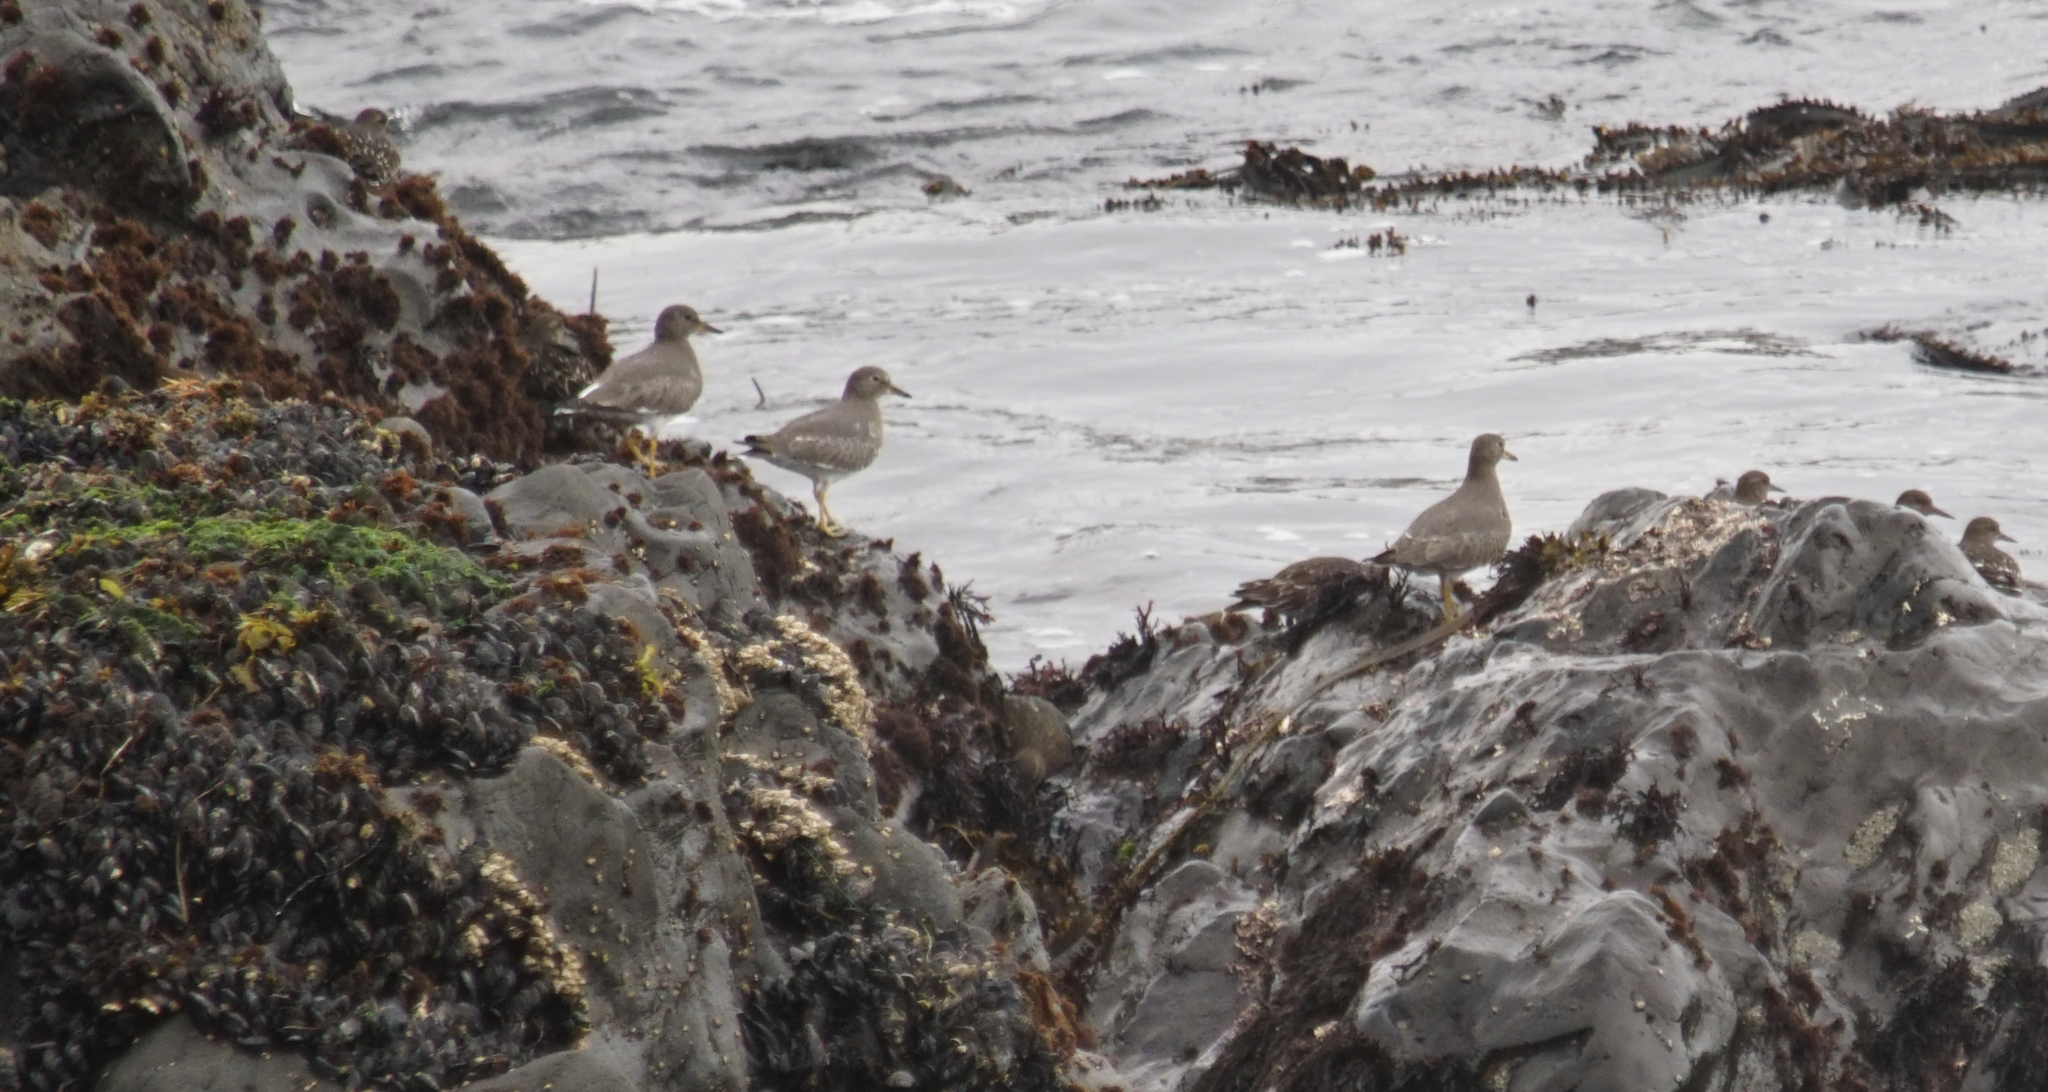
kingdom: Animalia
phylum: Chordata
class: Aves
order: Charadriiformes
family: Scolopacidae
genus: Calidris
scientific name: Calidris virgata
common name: Surfbird
